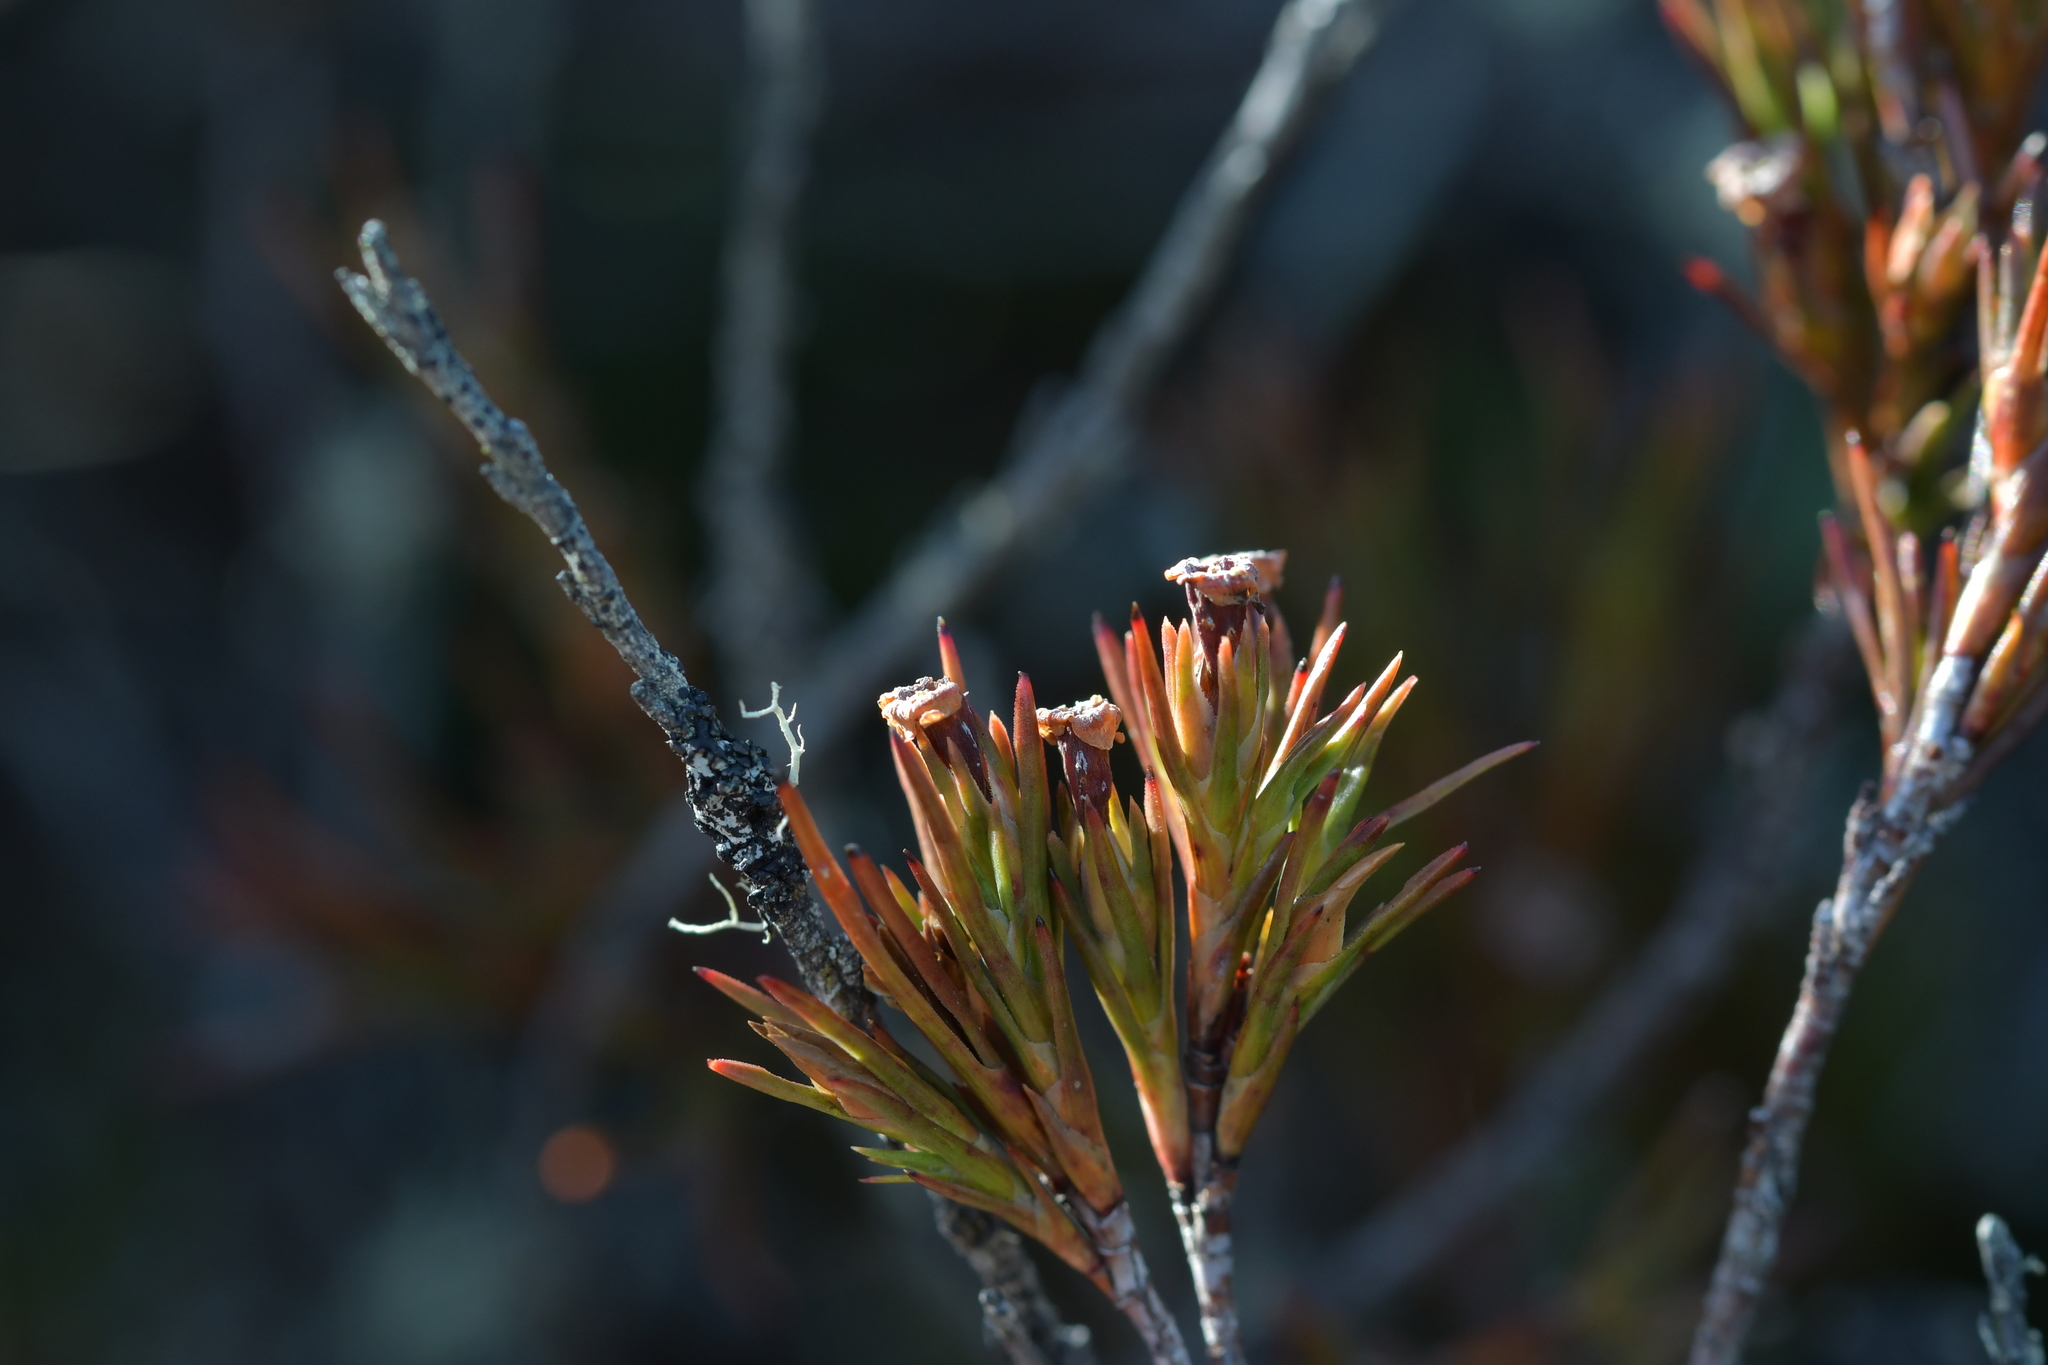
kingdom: Plantae
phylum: Tracheophyta
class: Magnoliopsida
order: Ericales
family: Ericaceae
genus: Dracophyllum
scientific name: Dracophyllum rosmarinifolium
